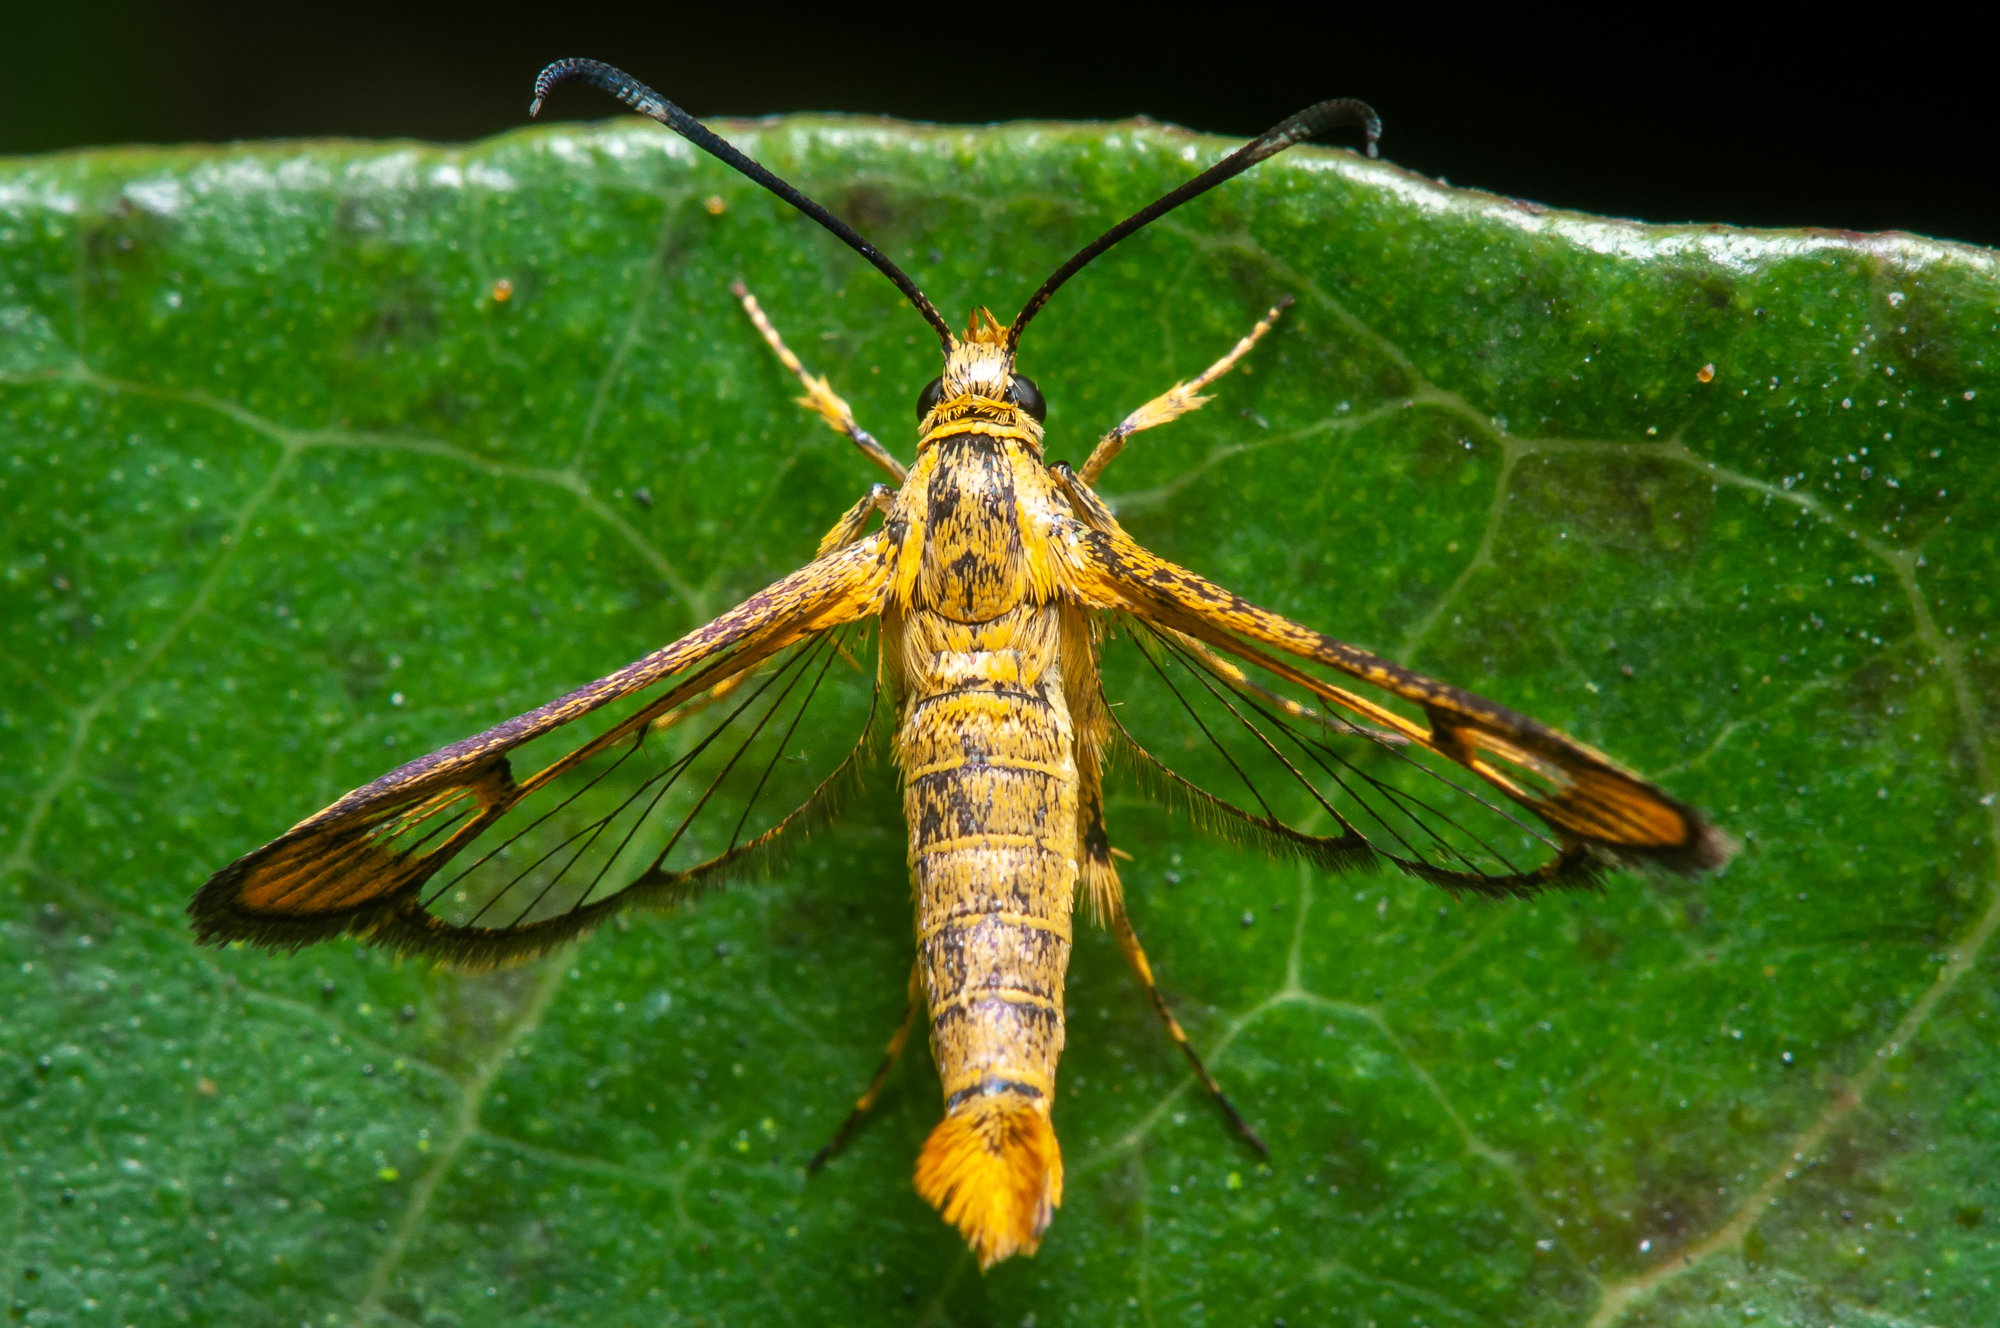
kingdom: Animalia
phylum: Arthropoda
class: Insecta
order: Lepidoptera
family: Sesiidae
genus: Synanthedon
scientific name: Synanthedon pini
